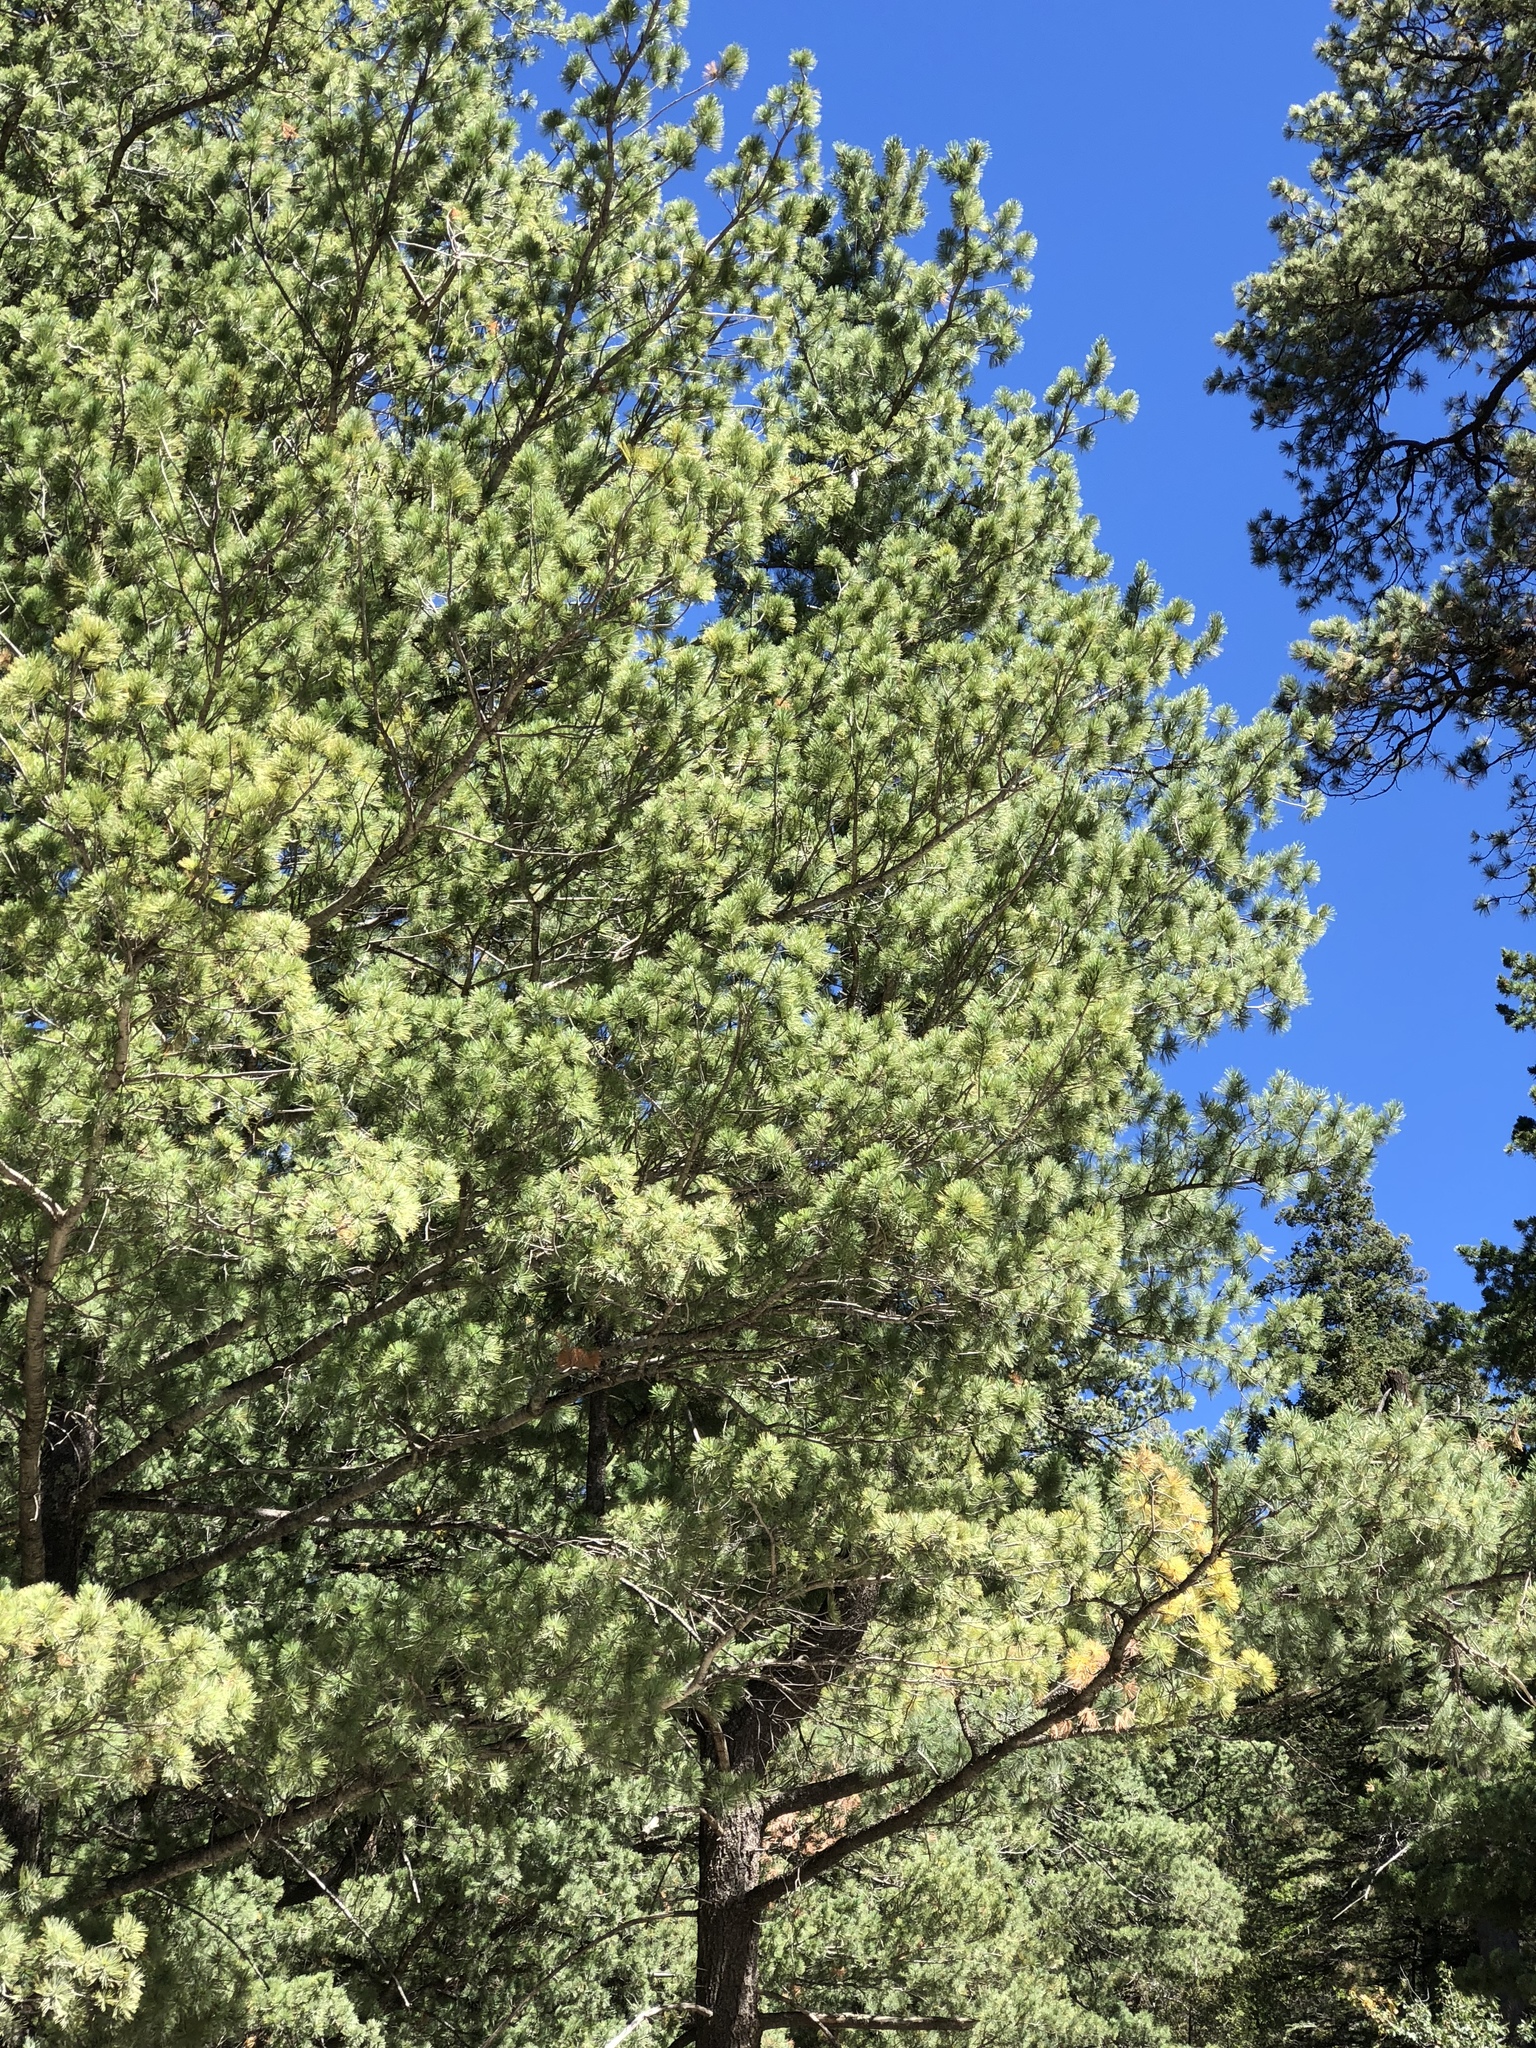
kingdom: Plantae
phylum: Tracheophyta
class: Pinopsida
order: Pinales
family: Pinaceae
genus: Pinus
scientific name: Pinus ponderosa
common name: Western yellow-pine
